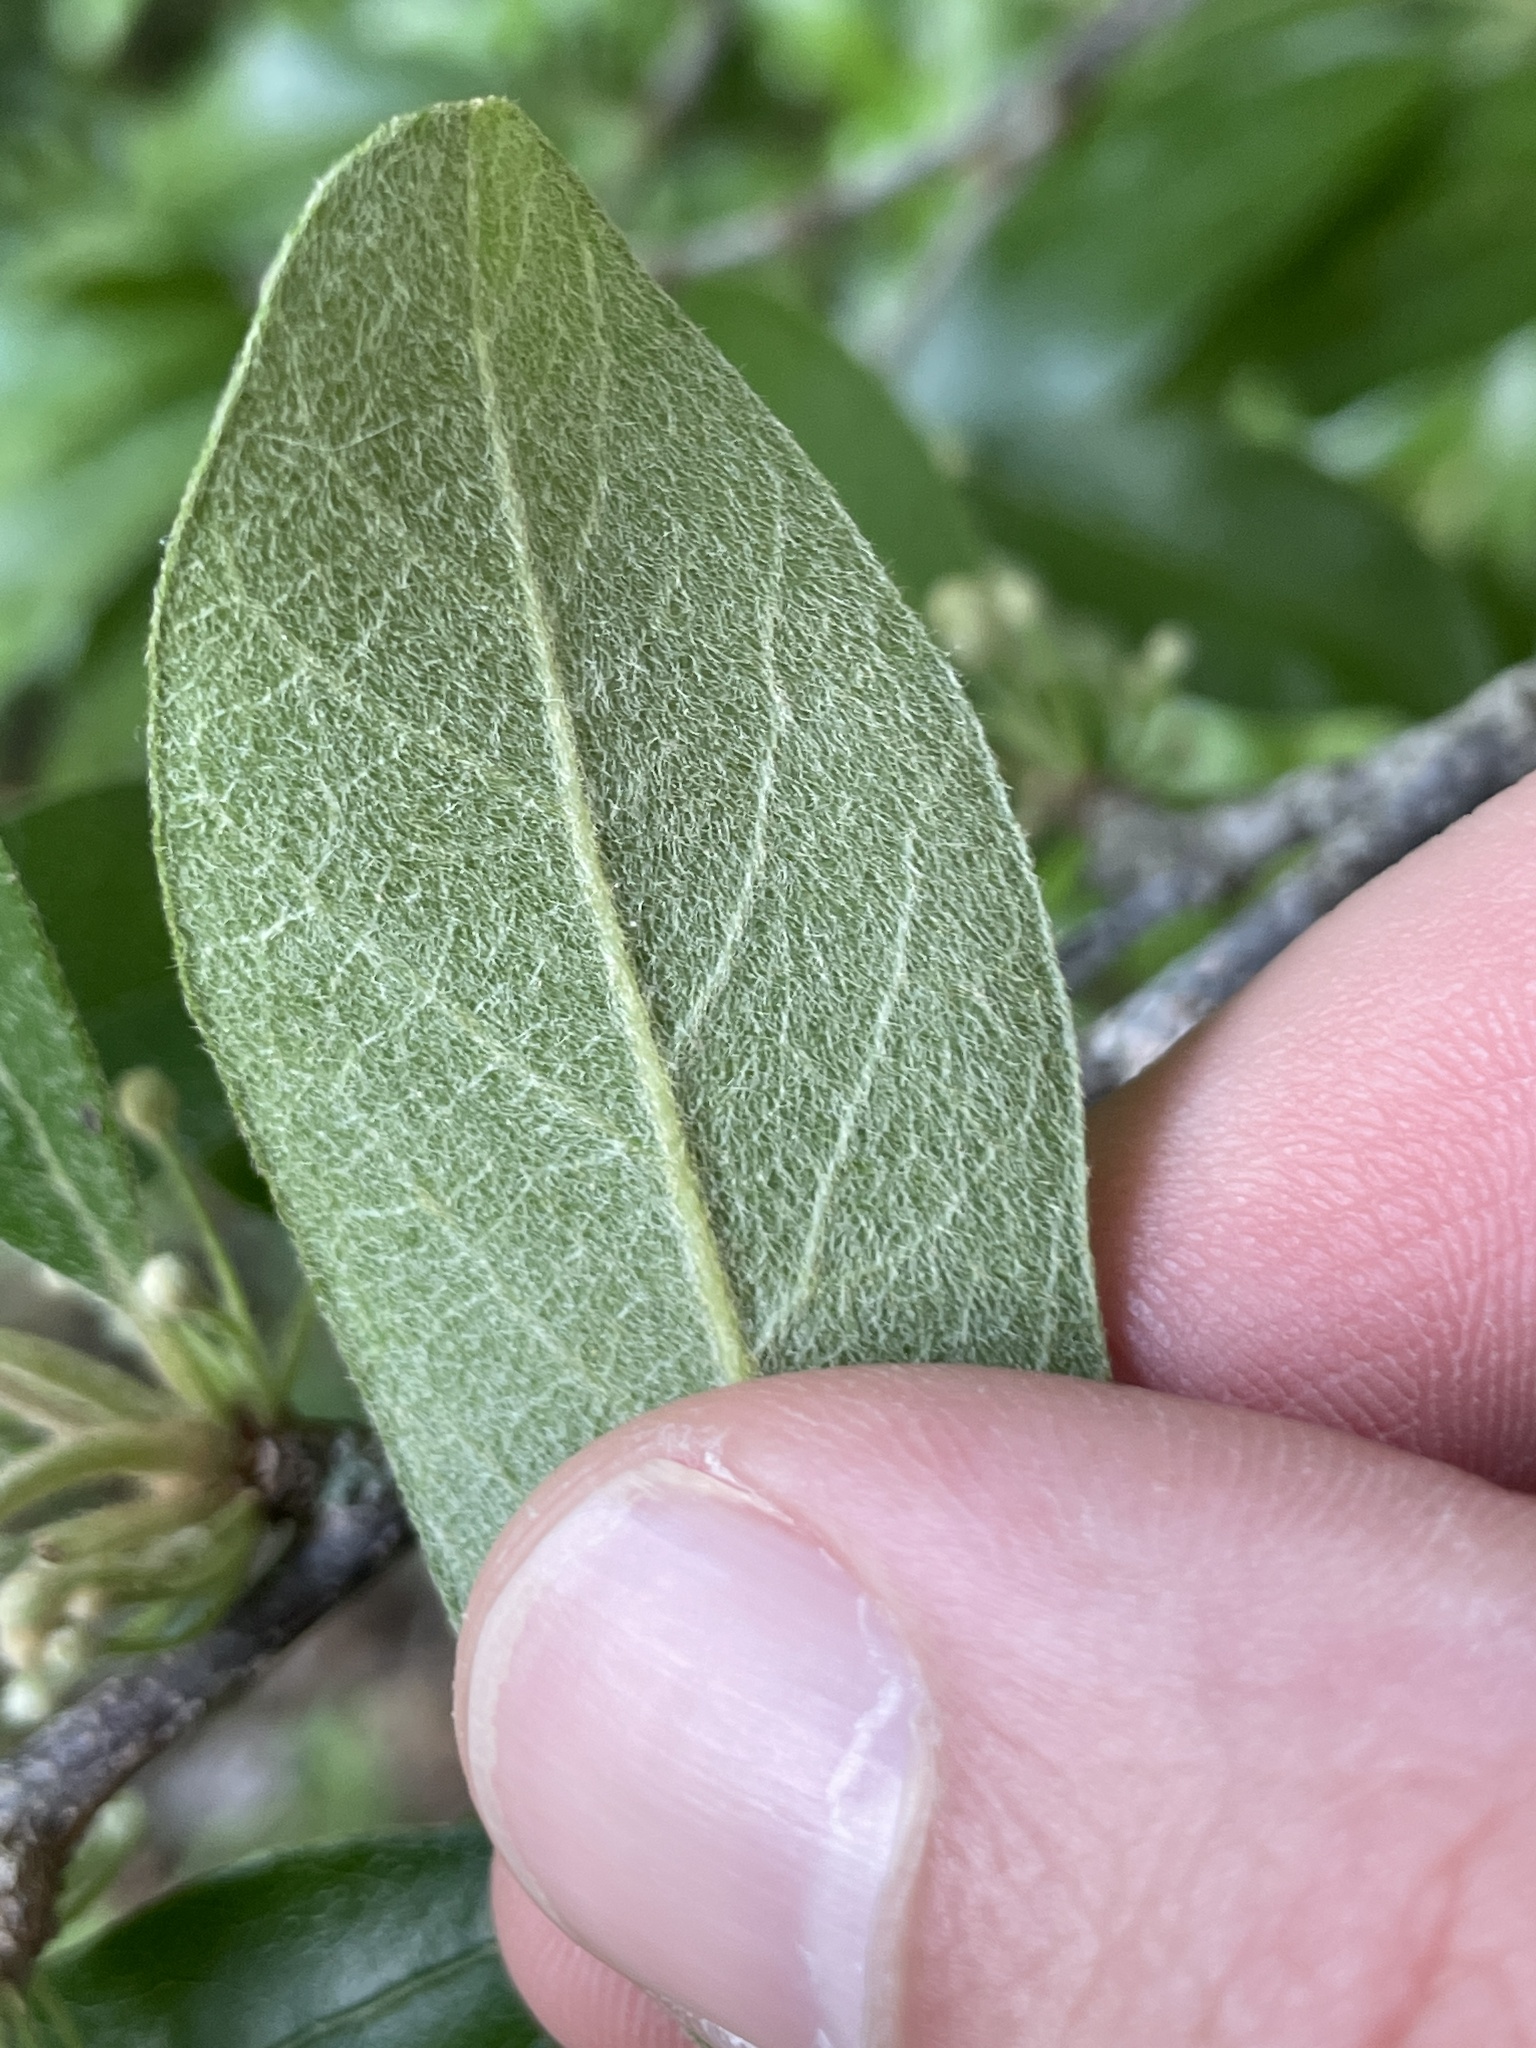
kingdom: Plantae
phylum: Tracheophyta
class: Magnoliopsida
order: Ericales
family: Sapotaceae
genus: Sideroxylon
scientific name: Sideroxylon lanuginosum
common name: Chittamwood
